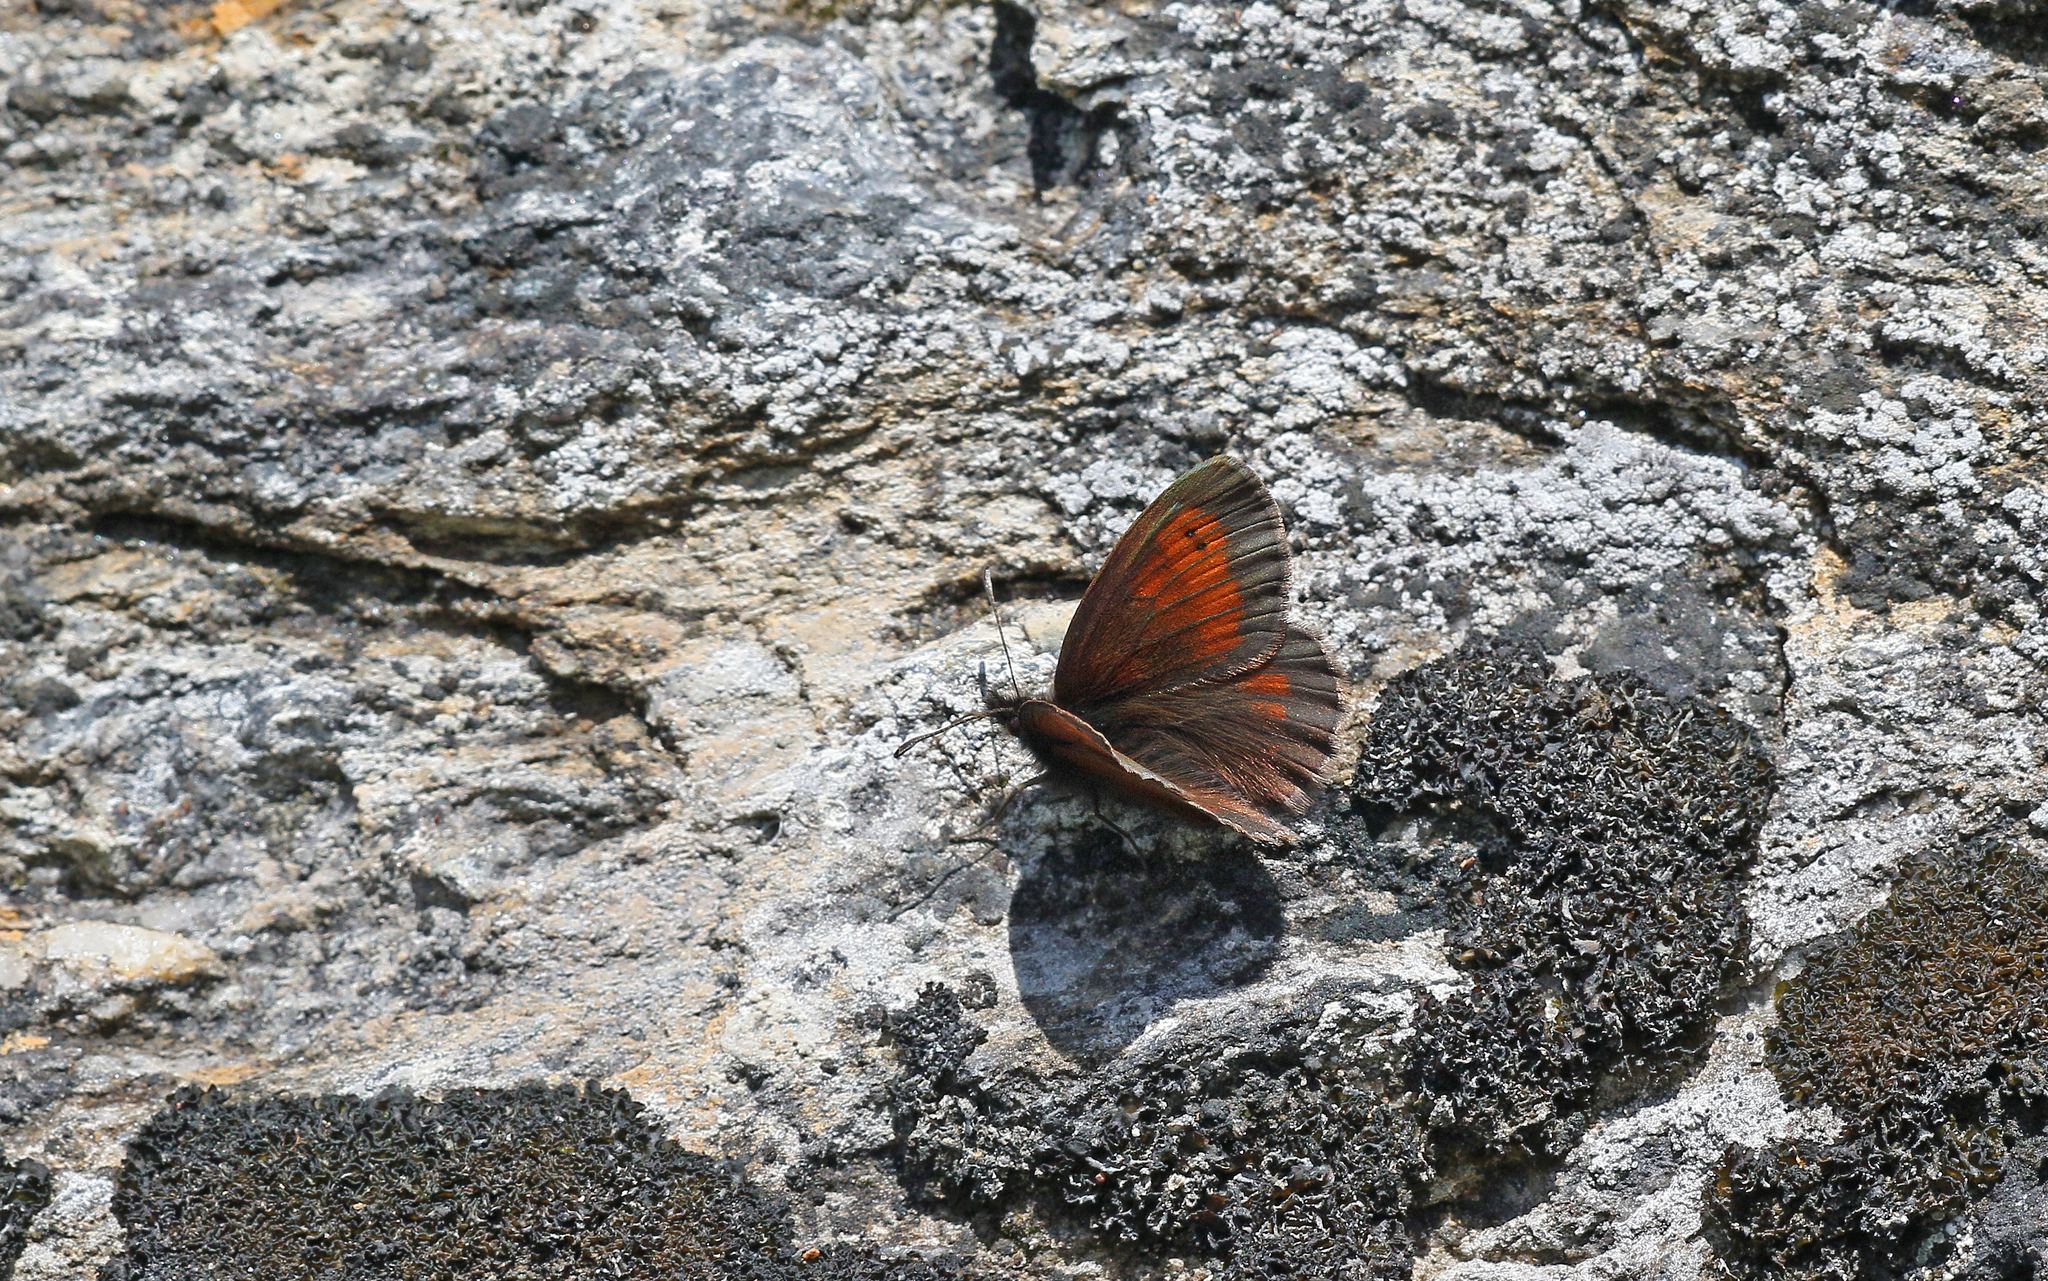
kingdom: Animalia
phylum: Arthropoda
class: Insecta
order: Lepidoptera
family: Nymphalidae
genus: Erebia
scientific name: Erebia mnestra
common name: Mnestra’s ringlet
